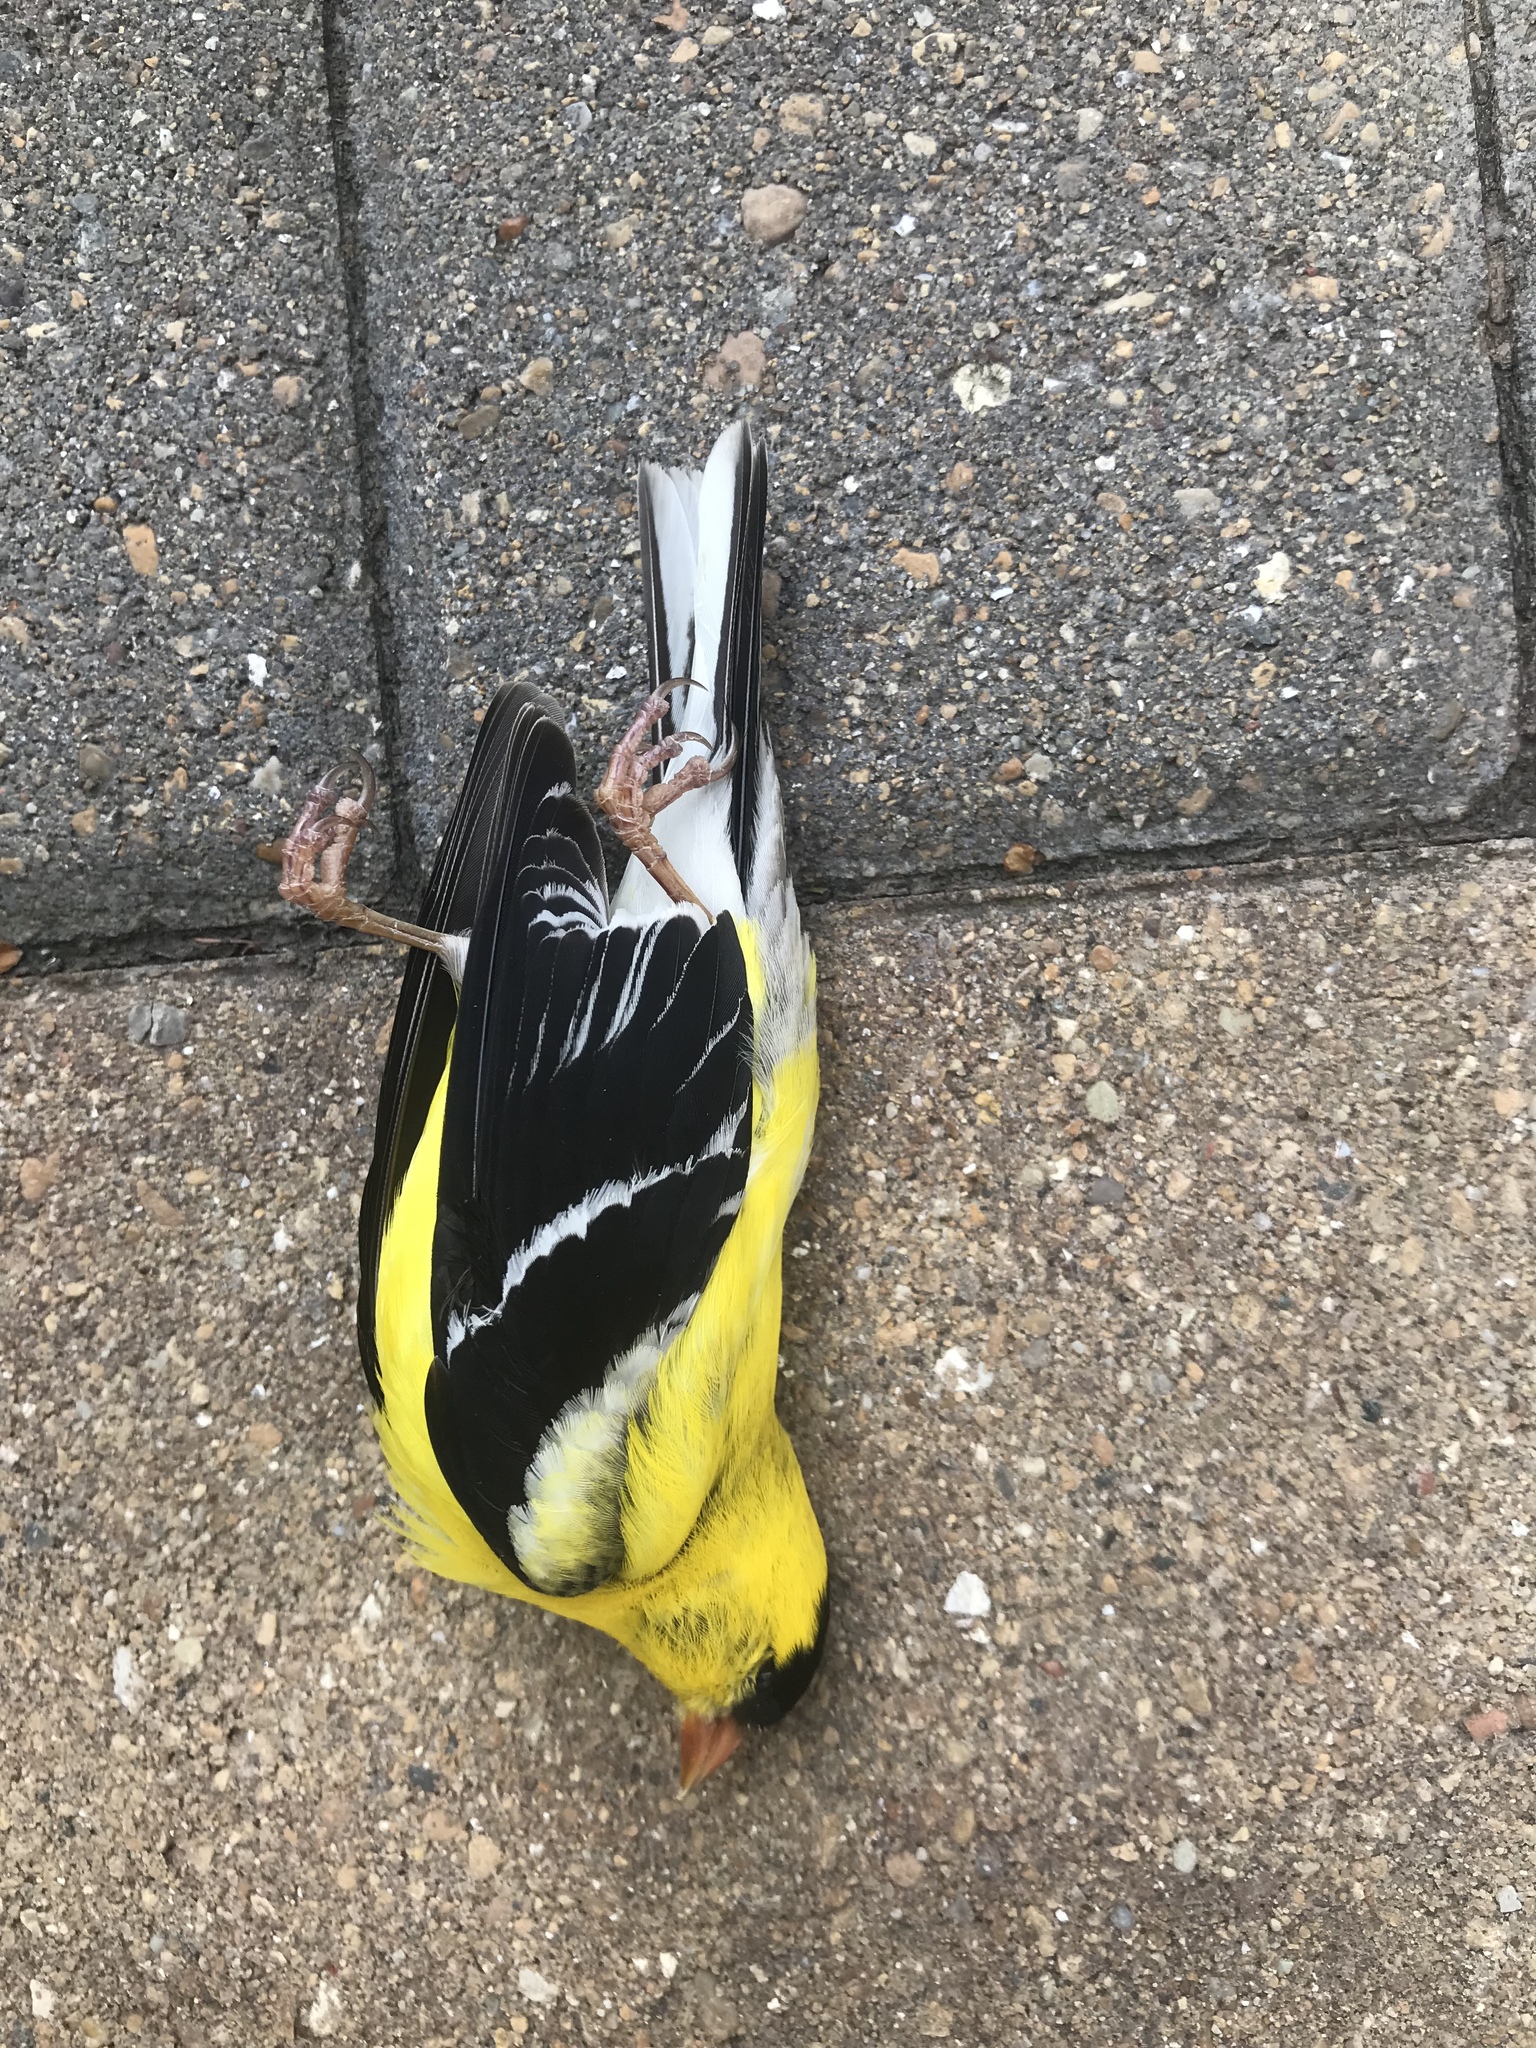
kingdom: Animalia
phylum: Chordata
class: Aves
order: Passeriformes
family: Fringillidae
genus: Spinus
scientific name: Spinus tristis
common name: American goldfinch
